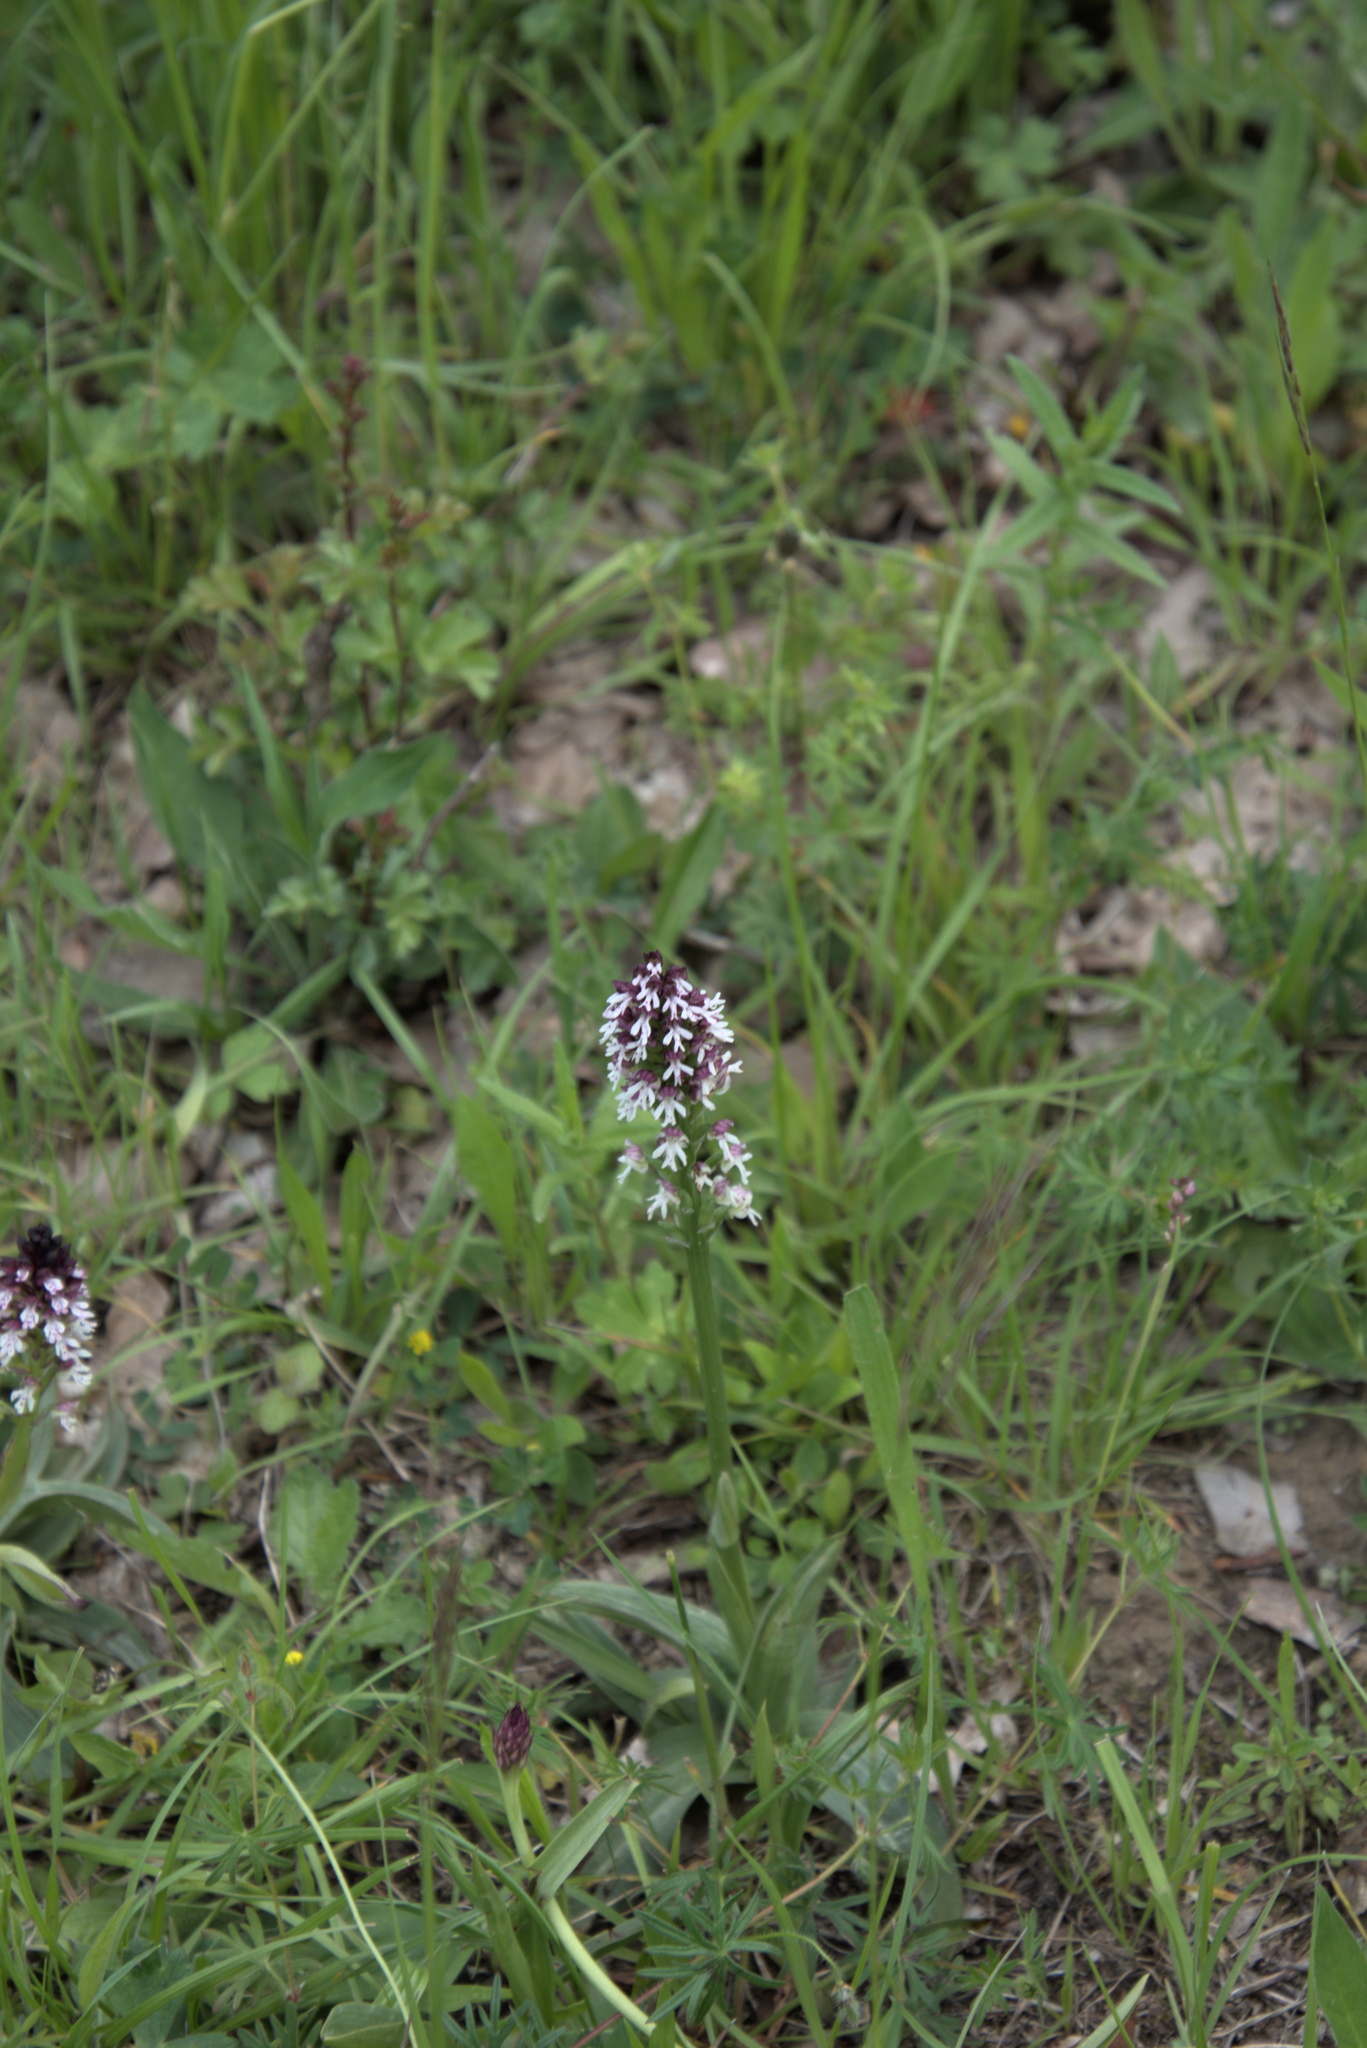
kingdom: Plantae
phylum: Tracheophyta
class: Liliopsida
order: Asparagales
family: Orchidaceae
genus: Neotinea
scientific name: Neotinea ustulata
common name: Burnt orchid
